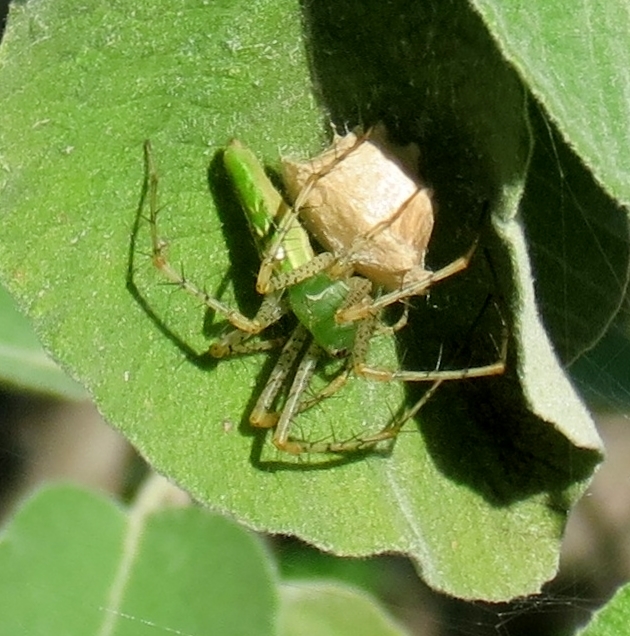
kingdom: Animalia
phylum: Arthropoda
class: Arachnida
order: Araneae
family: Oxyopidae
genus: Peucetia
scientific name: Peucetia viridans
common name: Lynx spiders
